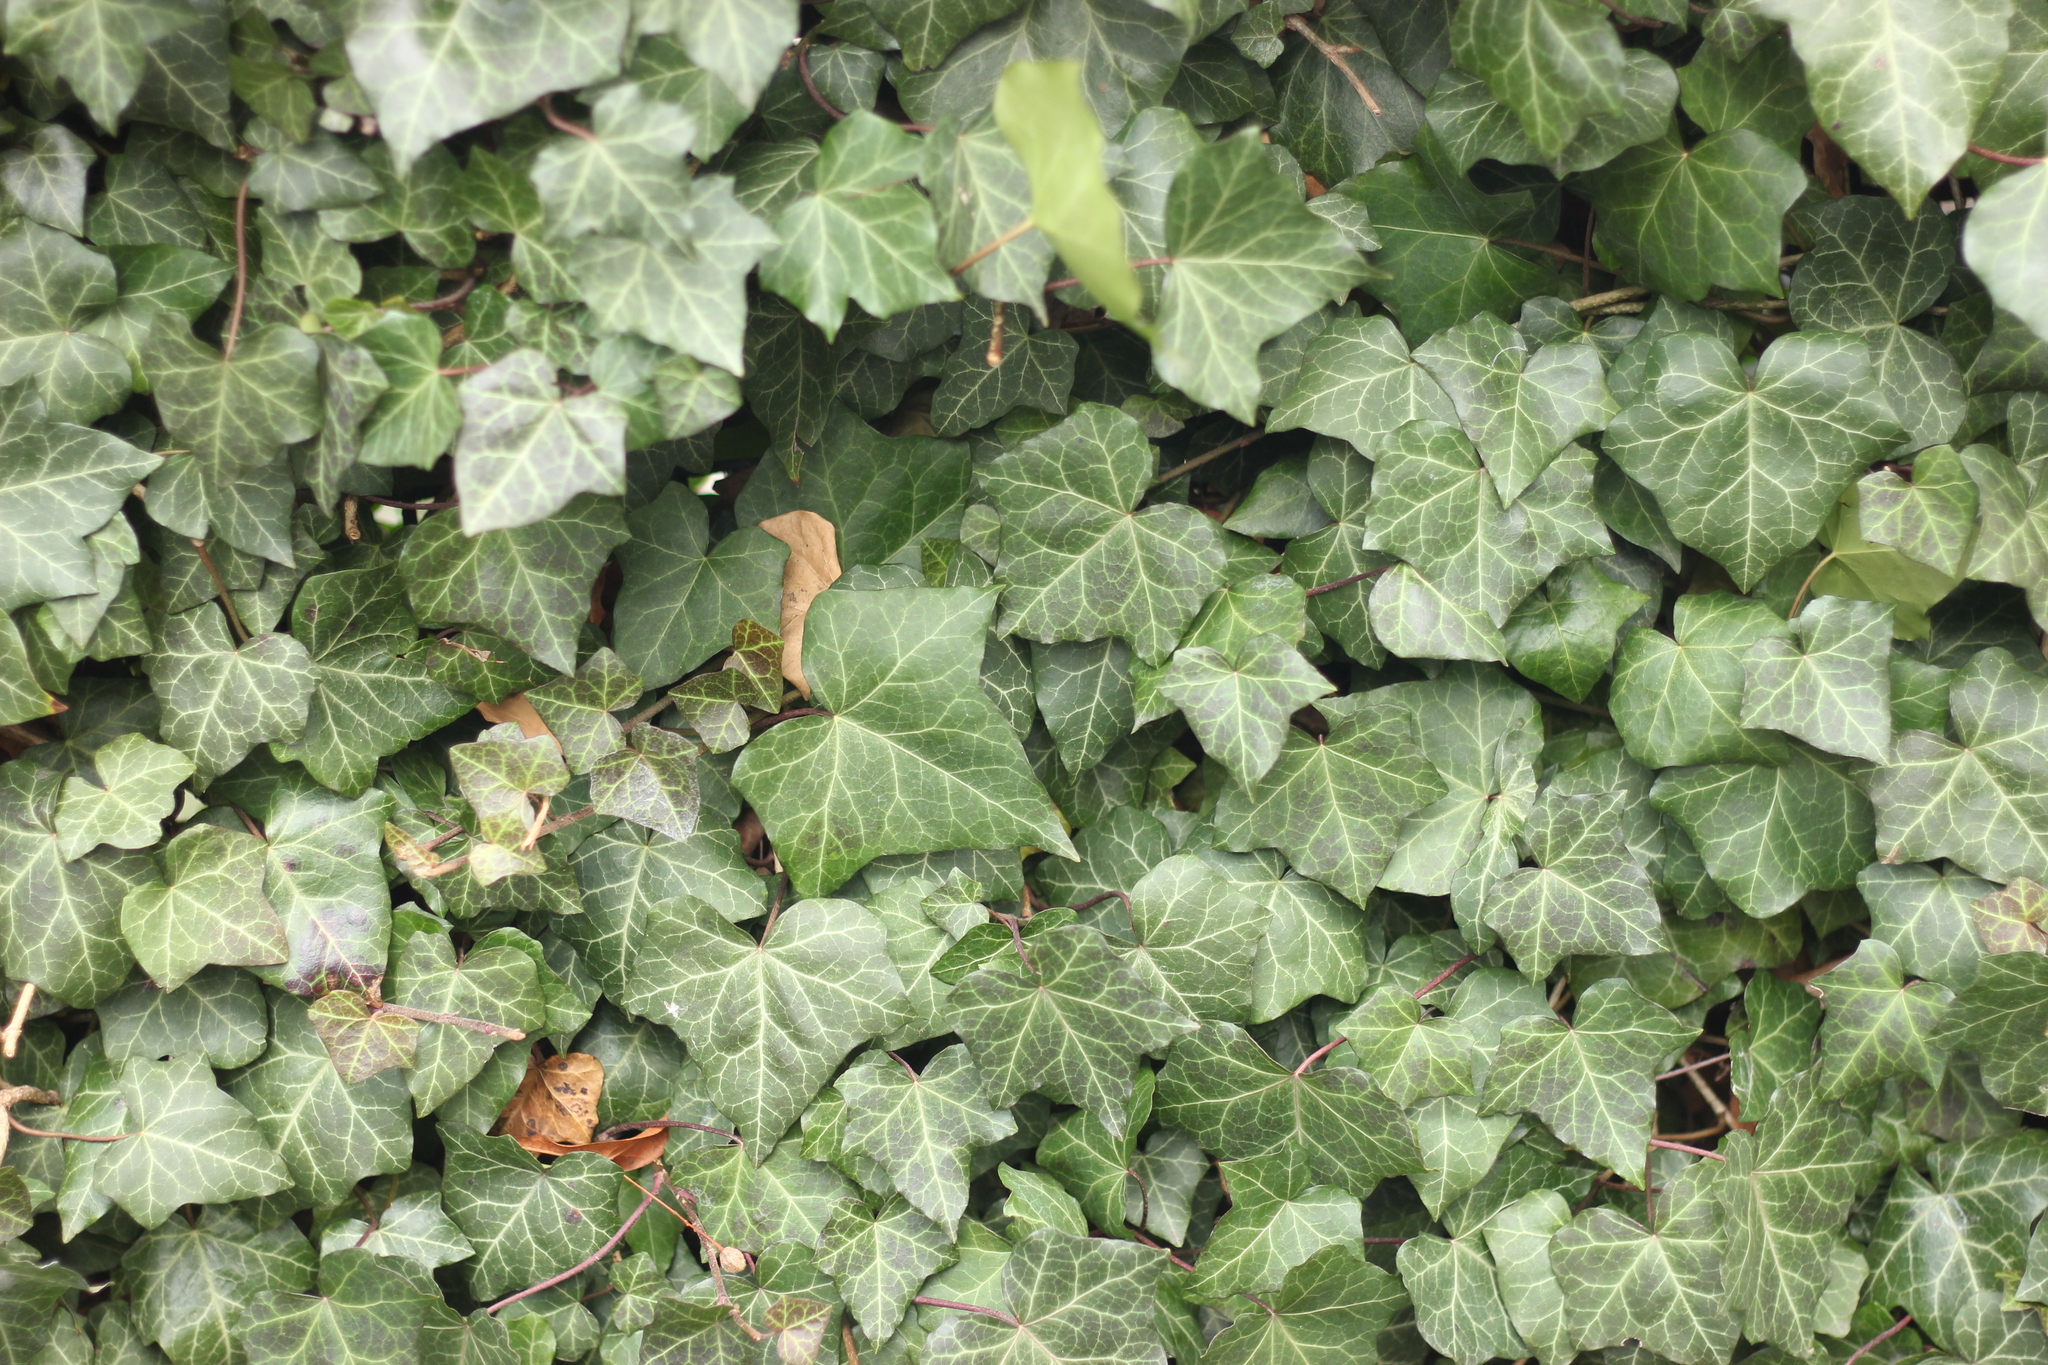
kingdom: Plantae
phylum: Tracheophyta
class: Magnoliopsida
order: Apiales
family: Araliaceae
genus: Hedera
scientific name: Hedera helix
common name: Ivy
